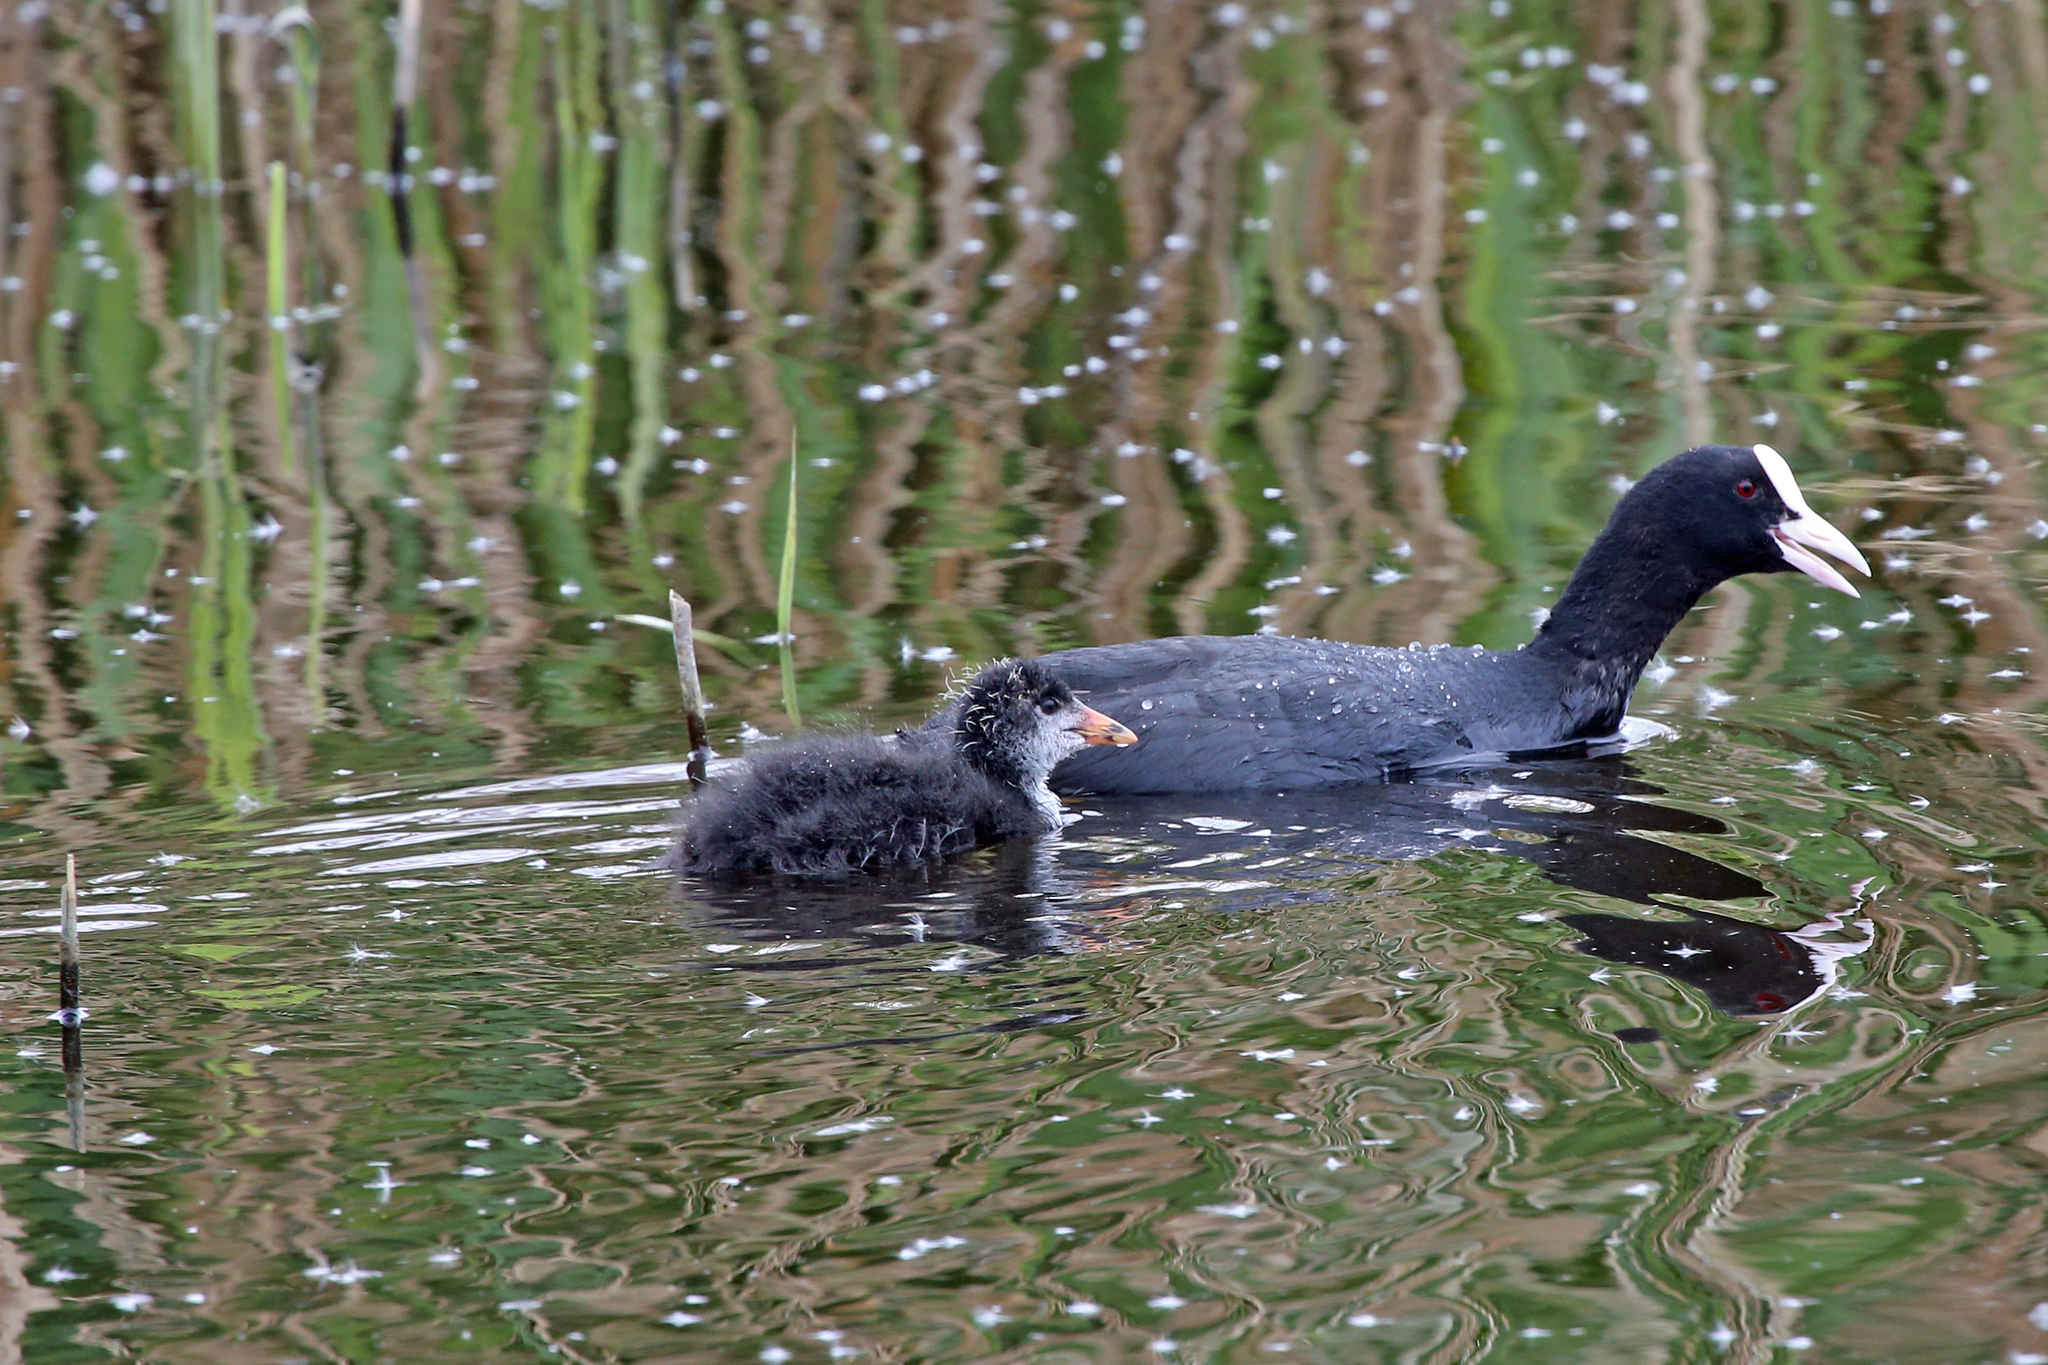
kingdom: Animalia
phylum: Chordata
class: Aves
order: Gruiformes
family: Rallidae
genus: Fulica
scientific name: Fulica atra
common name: Eurasian coot
